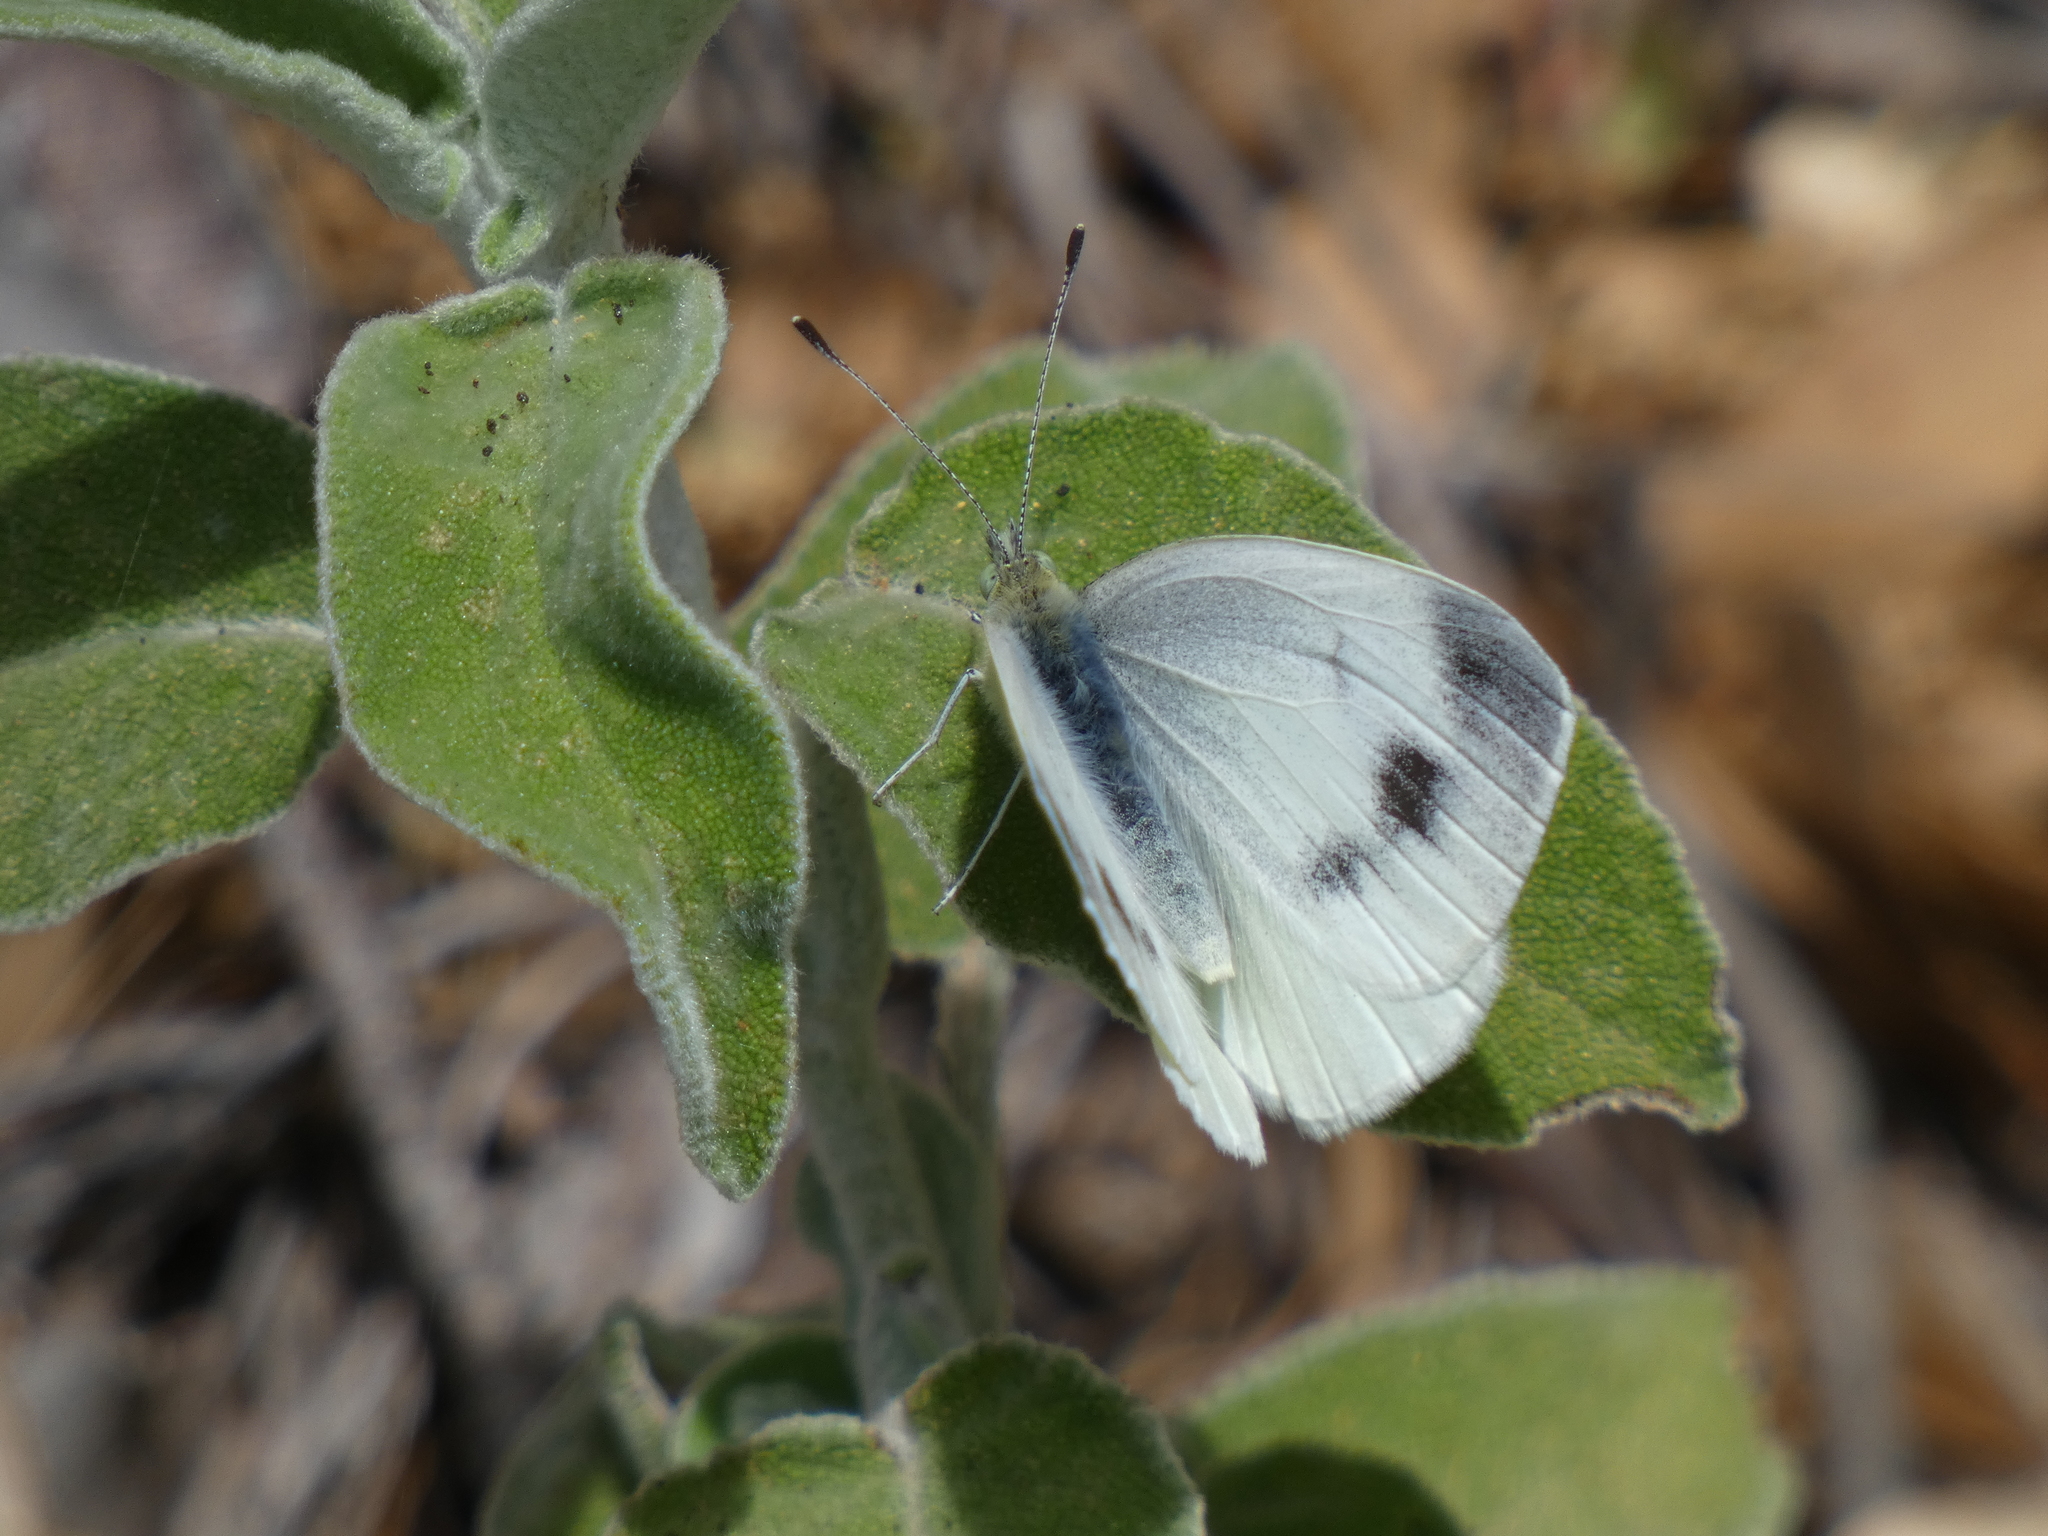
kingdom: Animalia
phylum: Arthropoda
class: Insecta
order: Lepidoptera
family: Pieridae
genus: Pieris
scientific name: Pieris ergane
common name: Mountain small white
